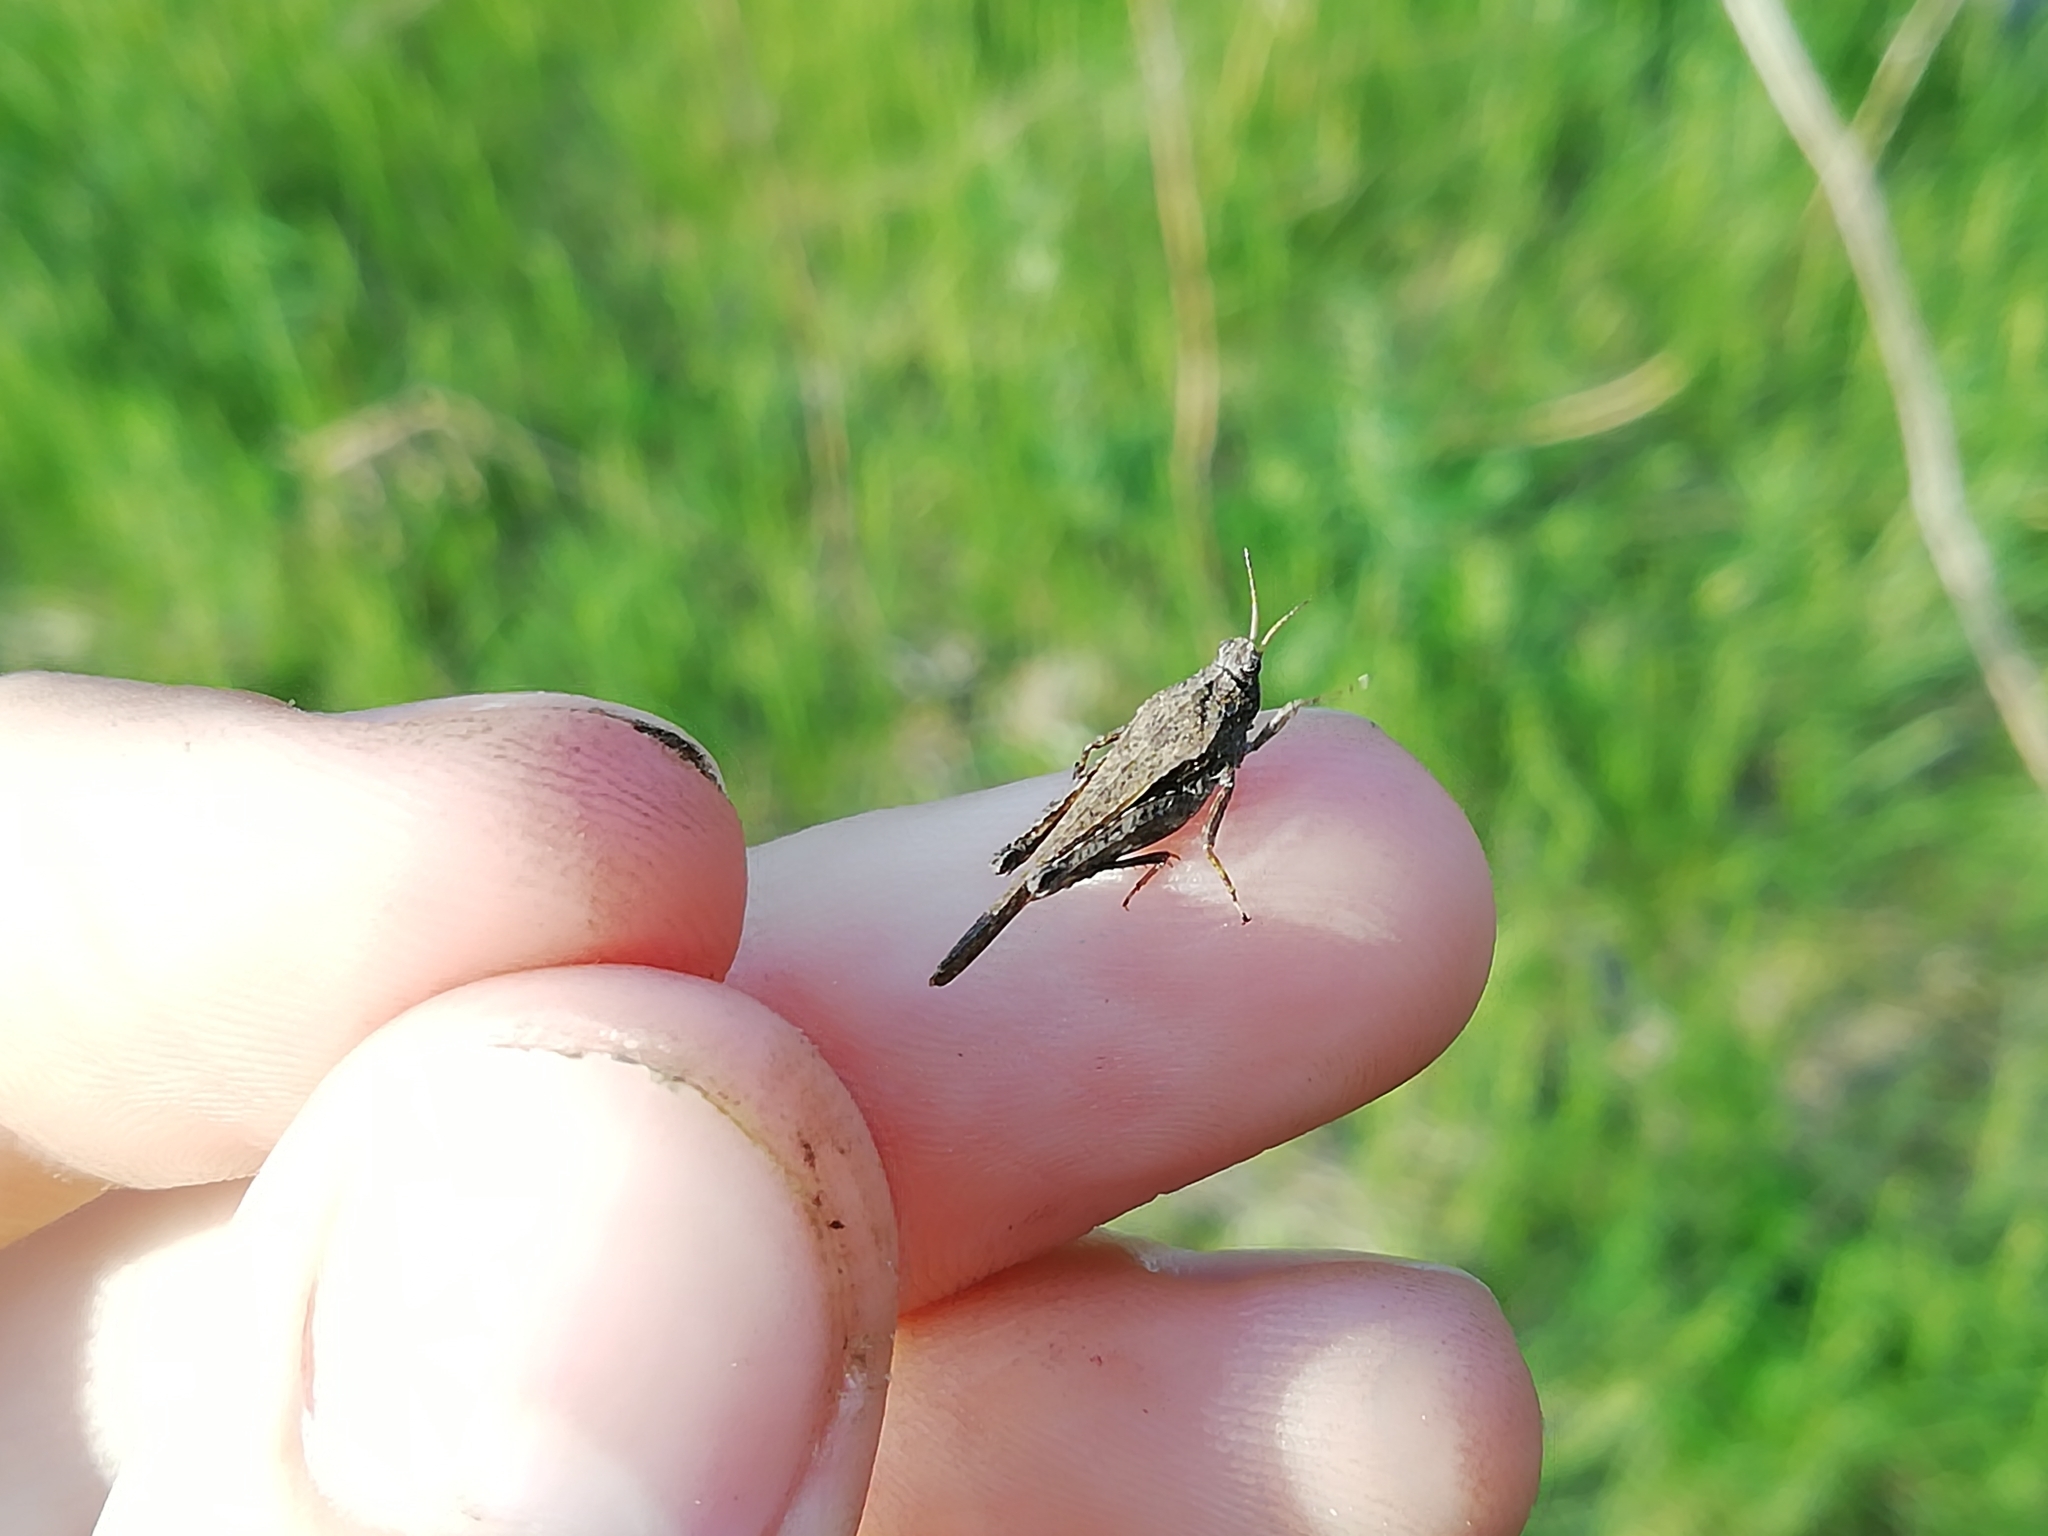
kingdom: Animalia
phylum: Arthropoda
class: Insecta
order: Orthoptera
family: Tetrigidae
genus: Tetrix
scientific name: Tetrix subulata
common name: Slender ground-hopper
